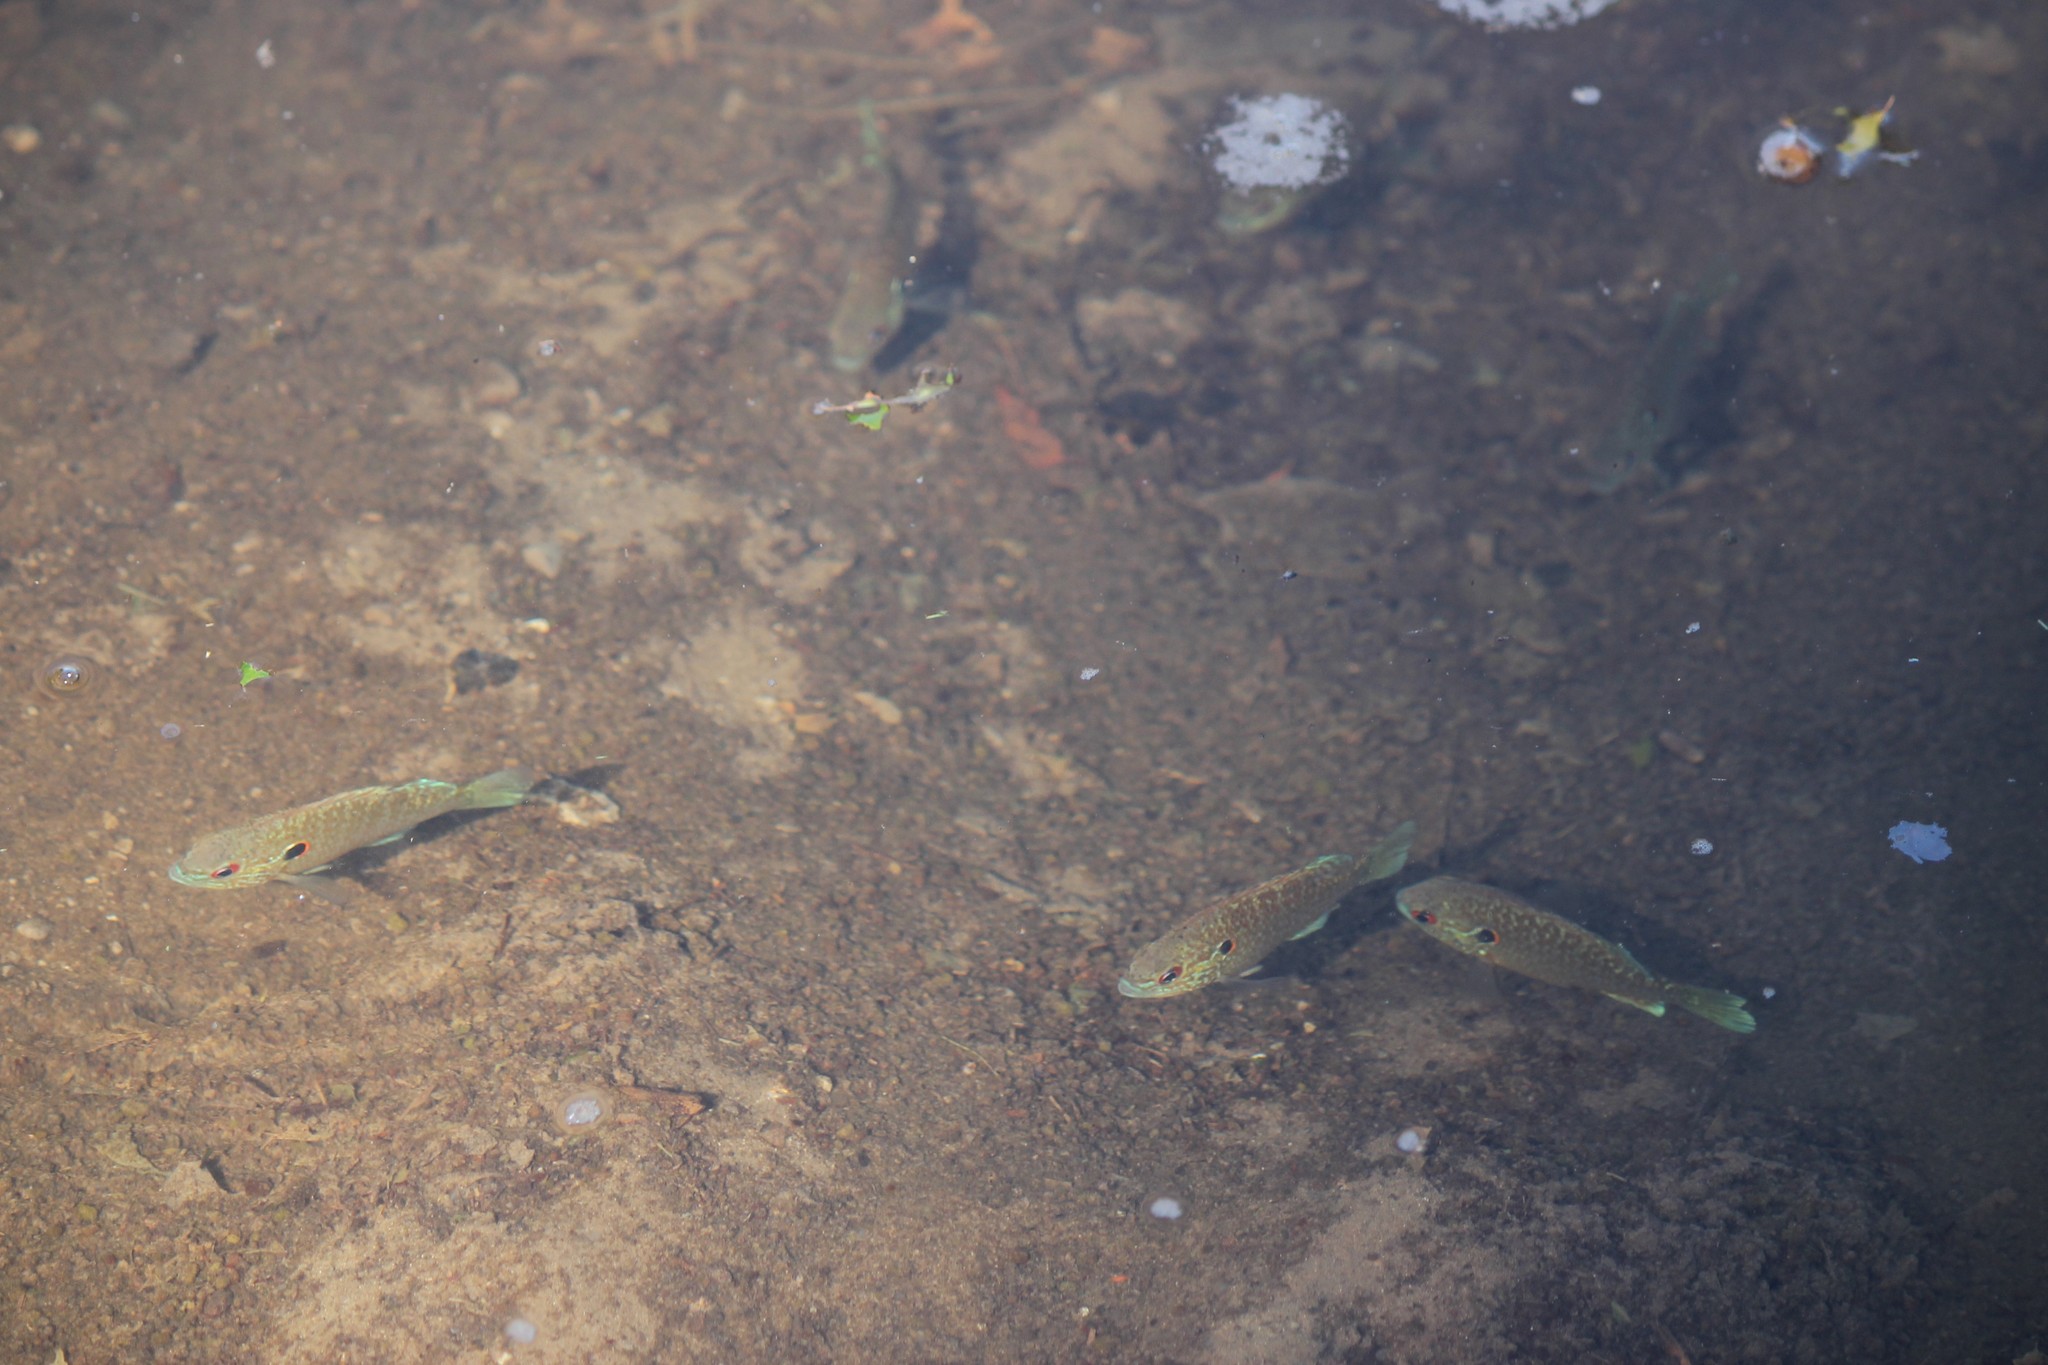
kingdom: Animalia
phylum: Chordata
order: Perciformes
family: Centrarchidae
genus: Lepomis
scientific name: Lepomis peltastes
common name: Northern sunfish
